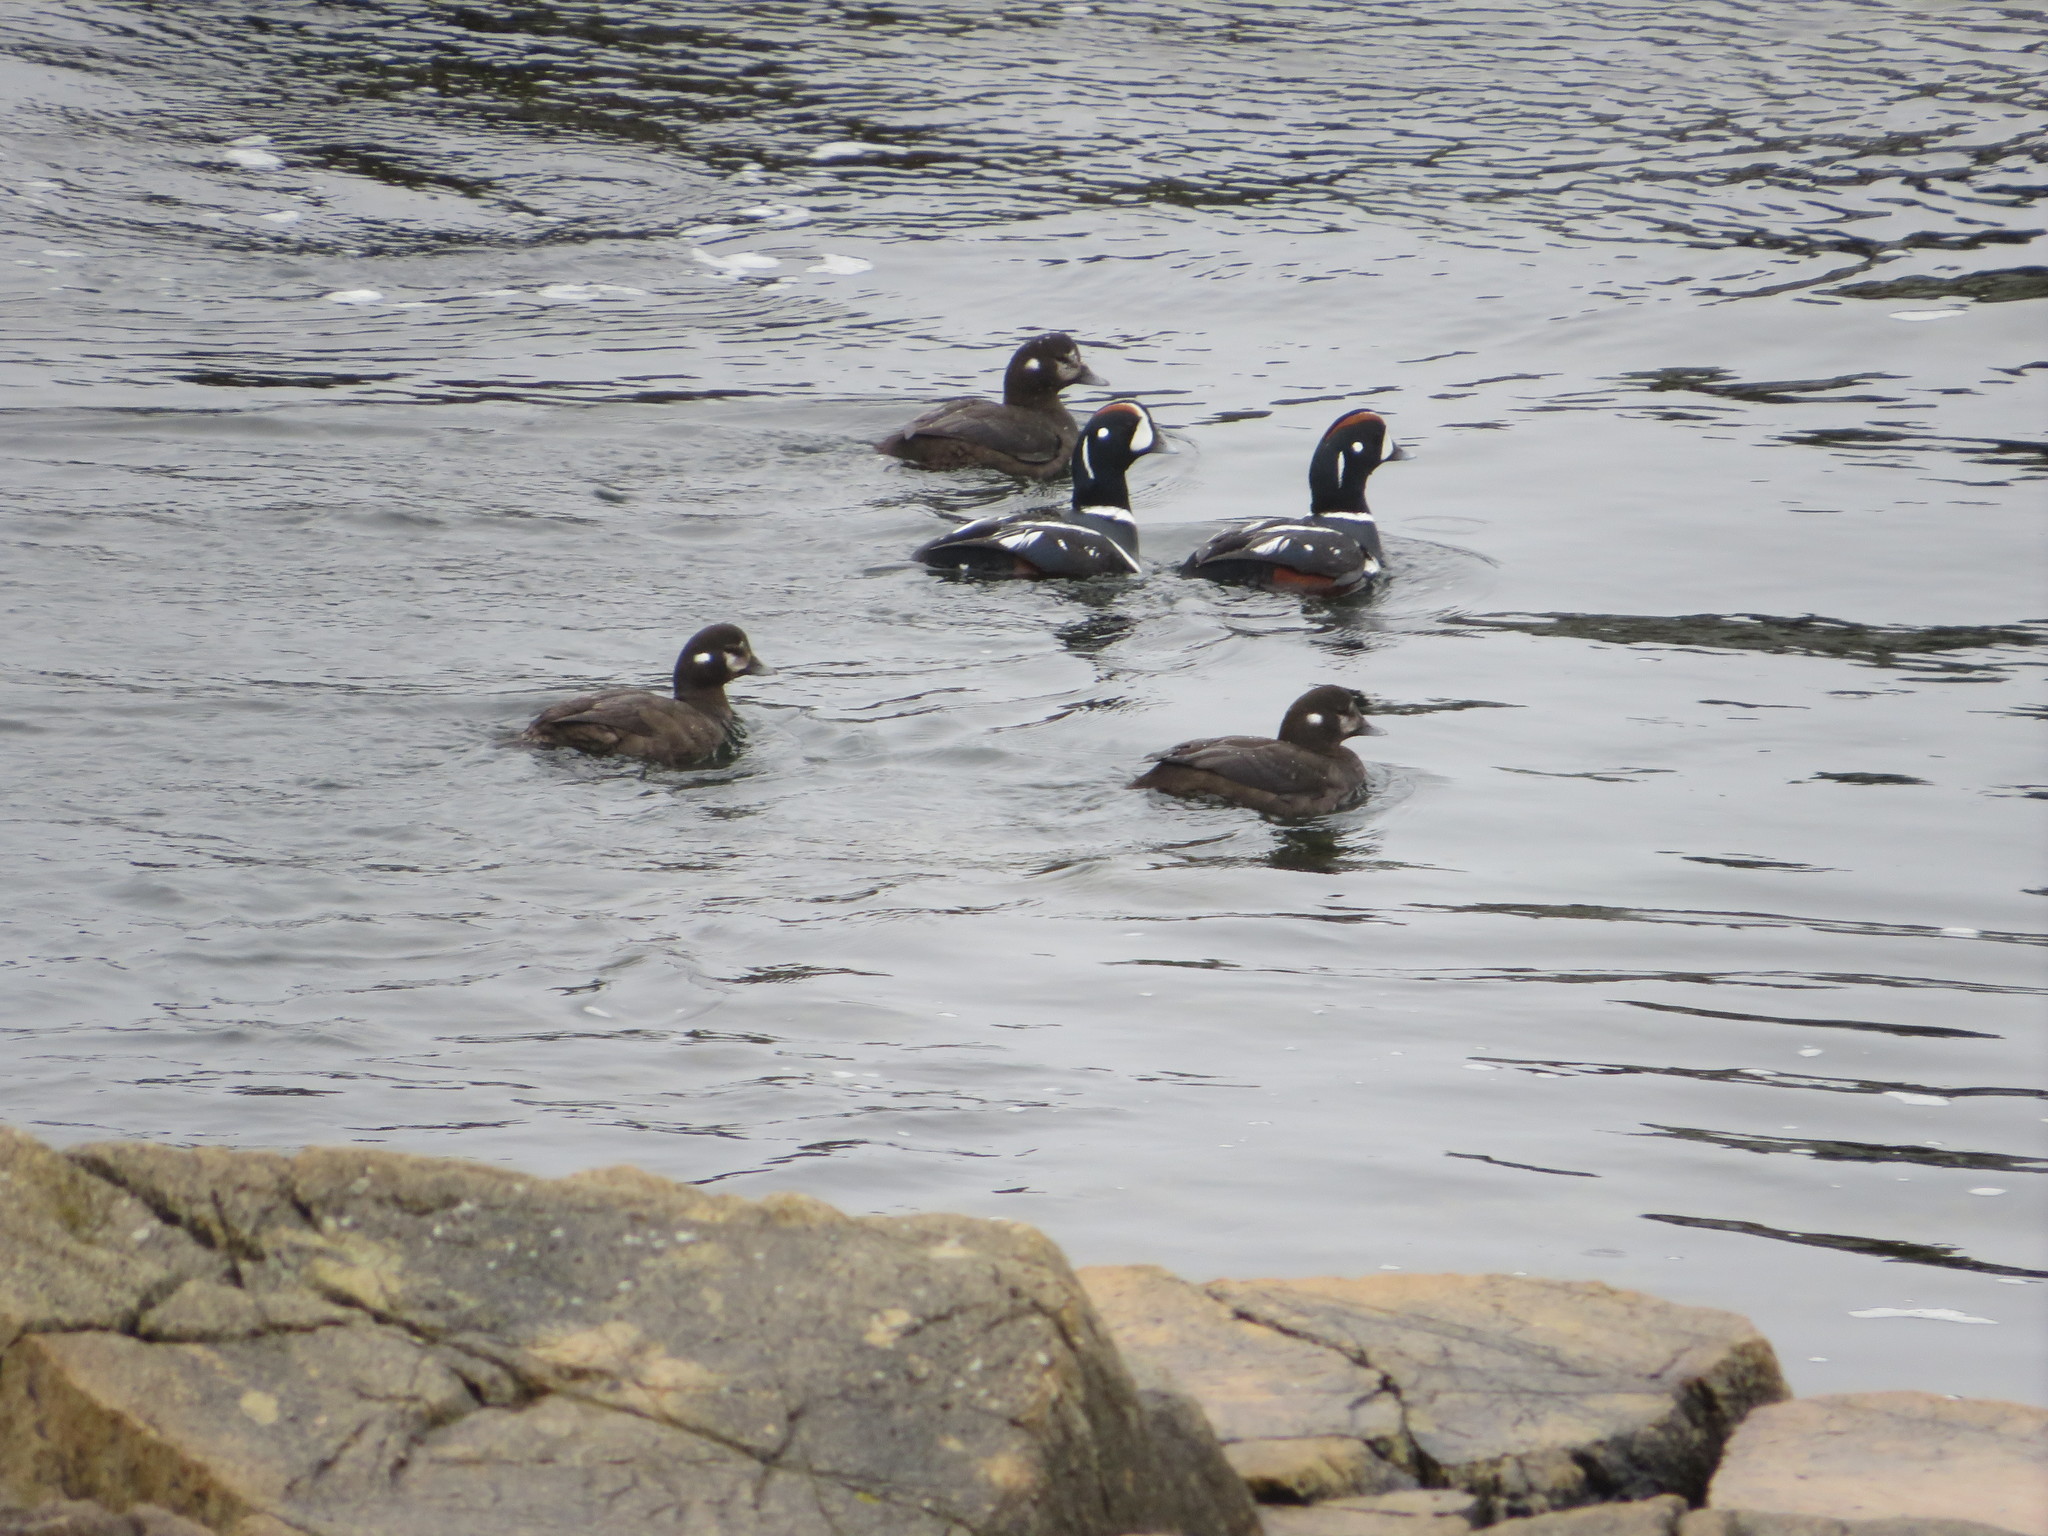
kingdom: Animalia
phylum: Chordata
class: Aves
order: Anseriformes
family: Anatidae
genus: Histrionicus
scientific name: Histrionicus histrionicus
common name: Harlequin duck
